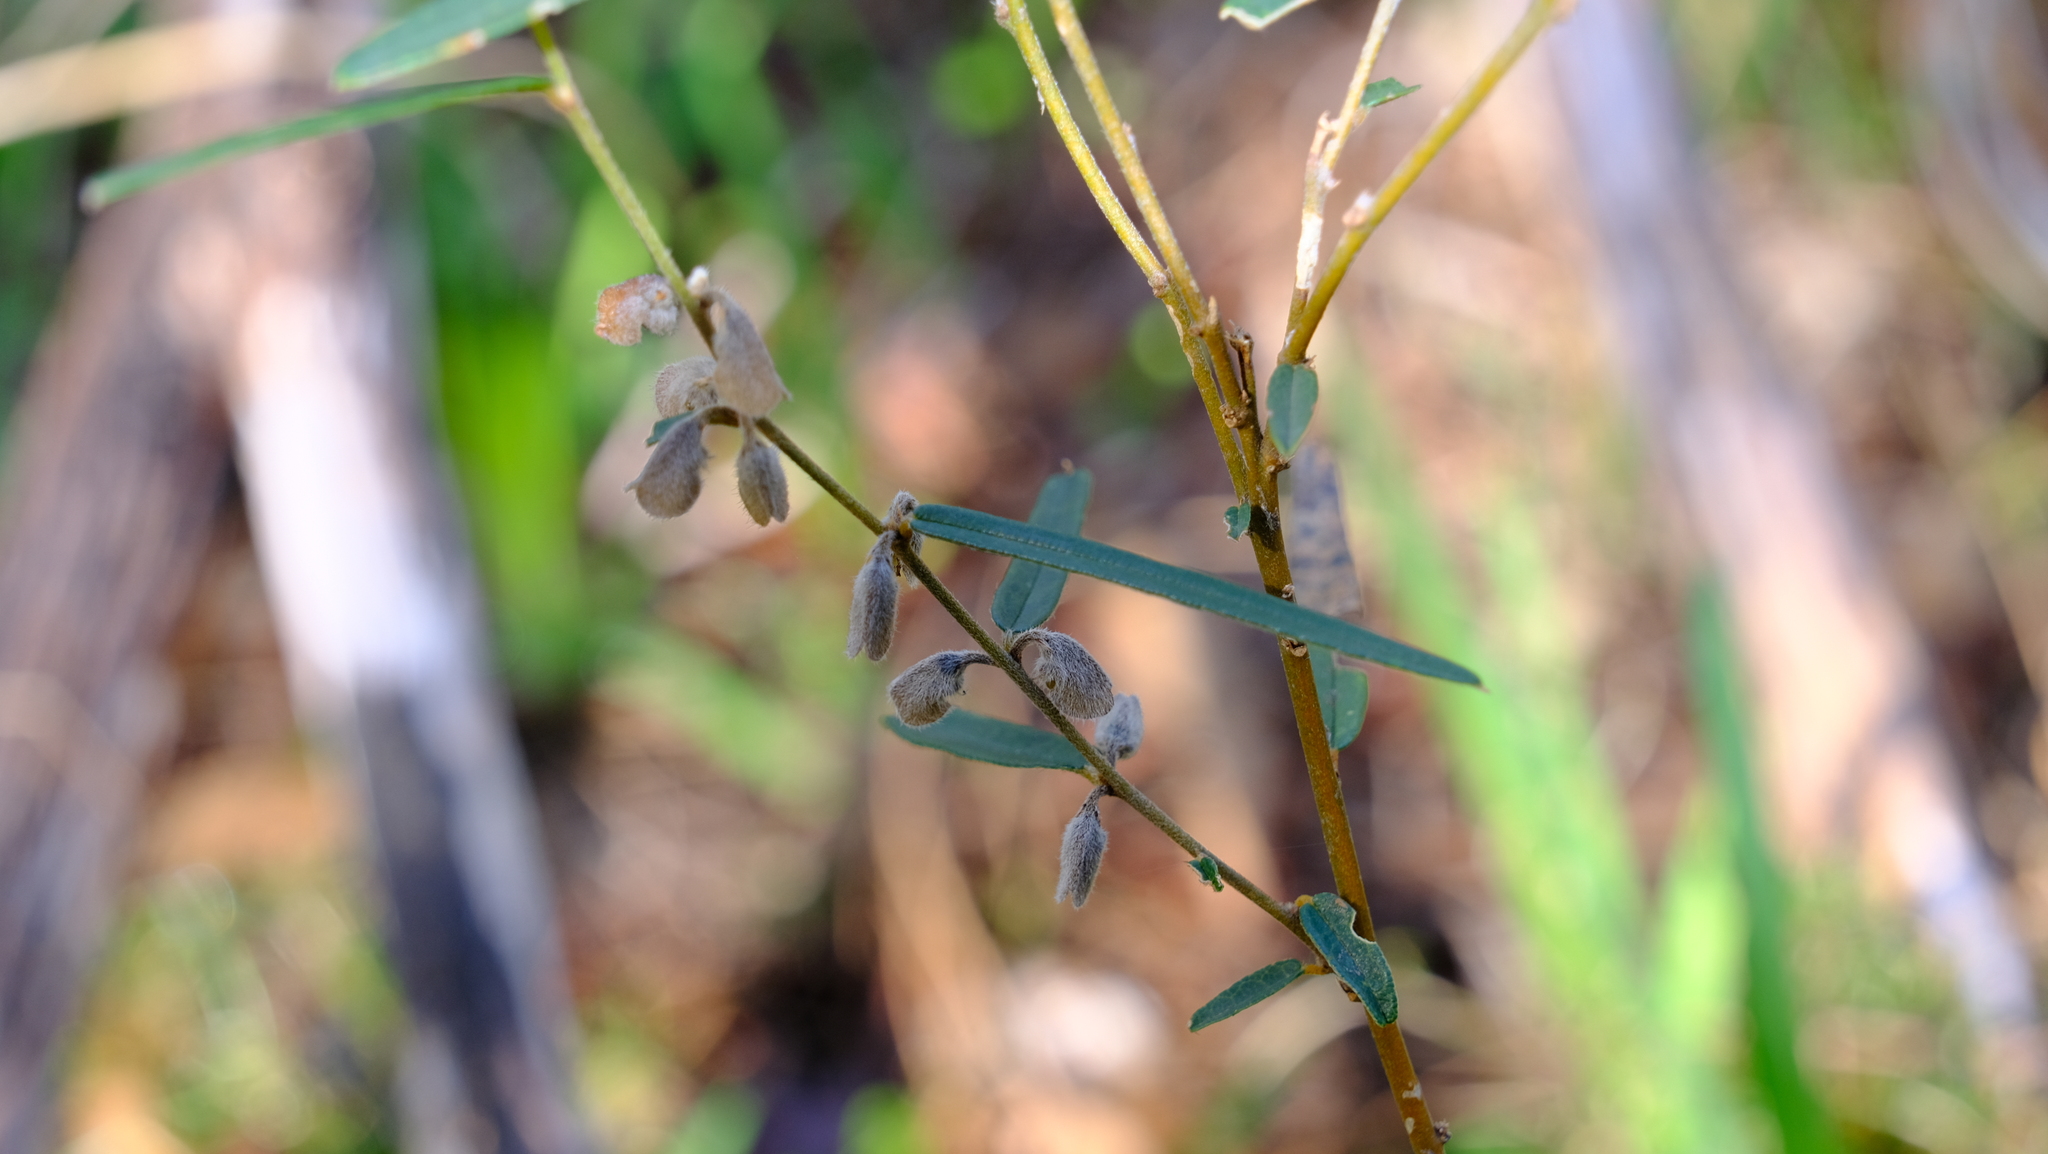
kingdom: Plantae
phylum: Tracheophyta
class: Magnoliopsida
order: Fabales
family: Fabaceae
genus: Hovea
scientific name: Hovea trisperma
